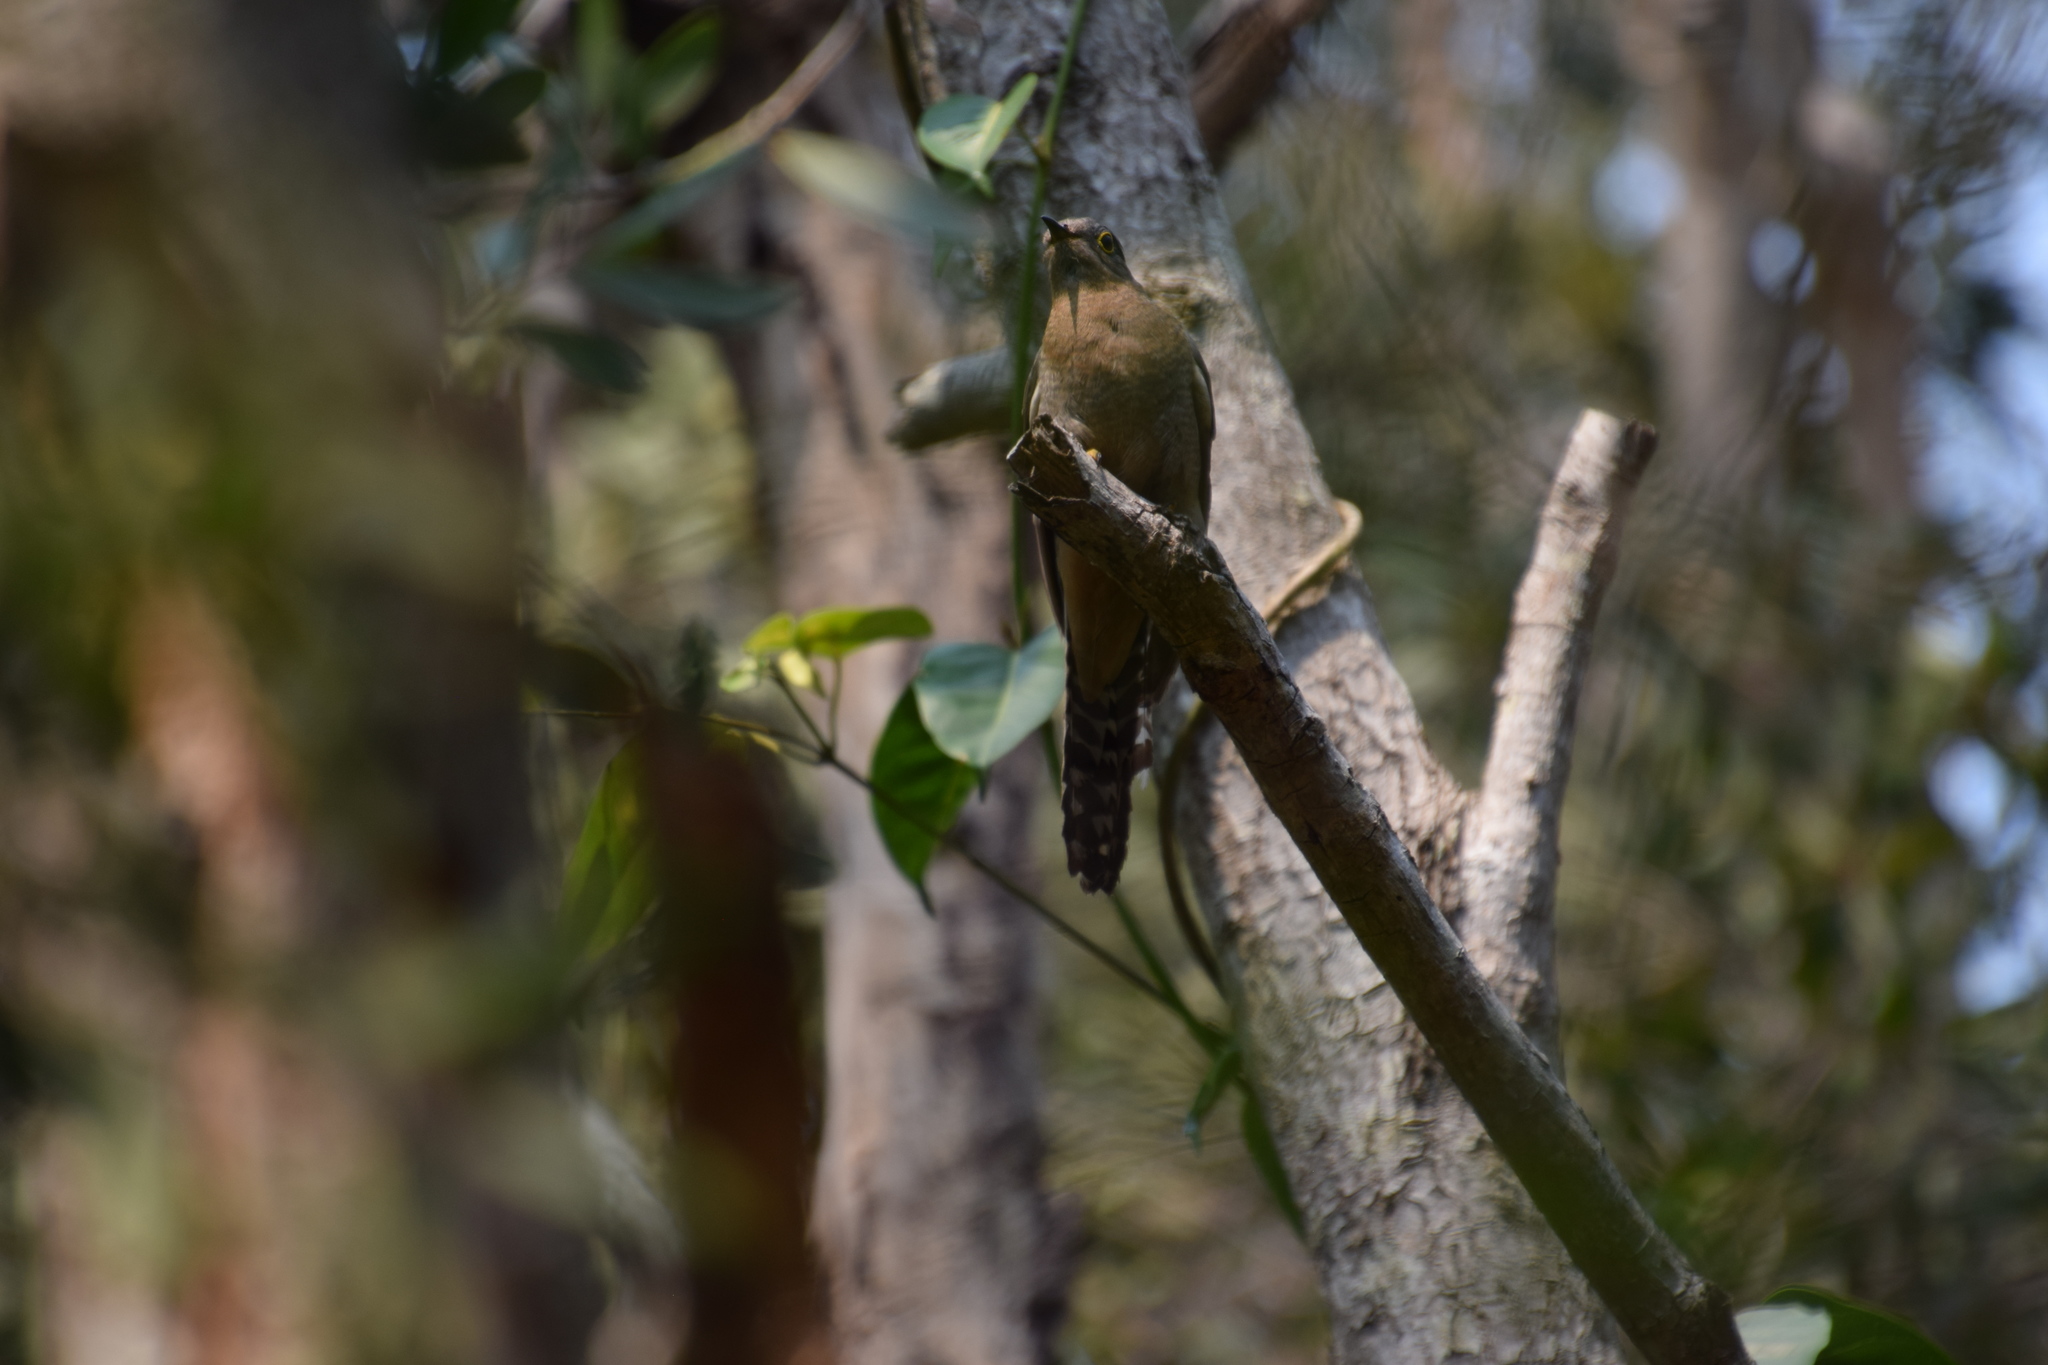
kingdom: Animalia
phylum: Chordata
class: Aves
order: Cuculiformes
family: Cuculidae
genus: Cacomantis
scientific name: Cacomantis flabelliformis
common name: Fan-tailed cuckoo
